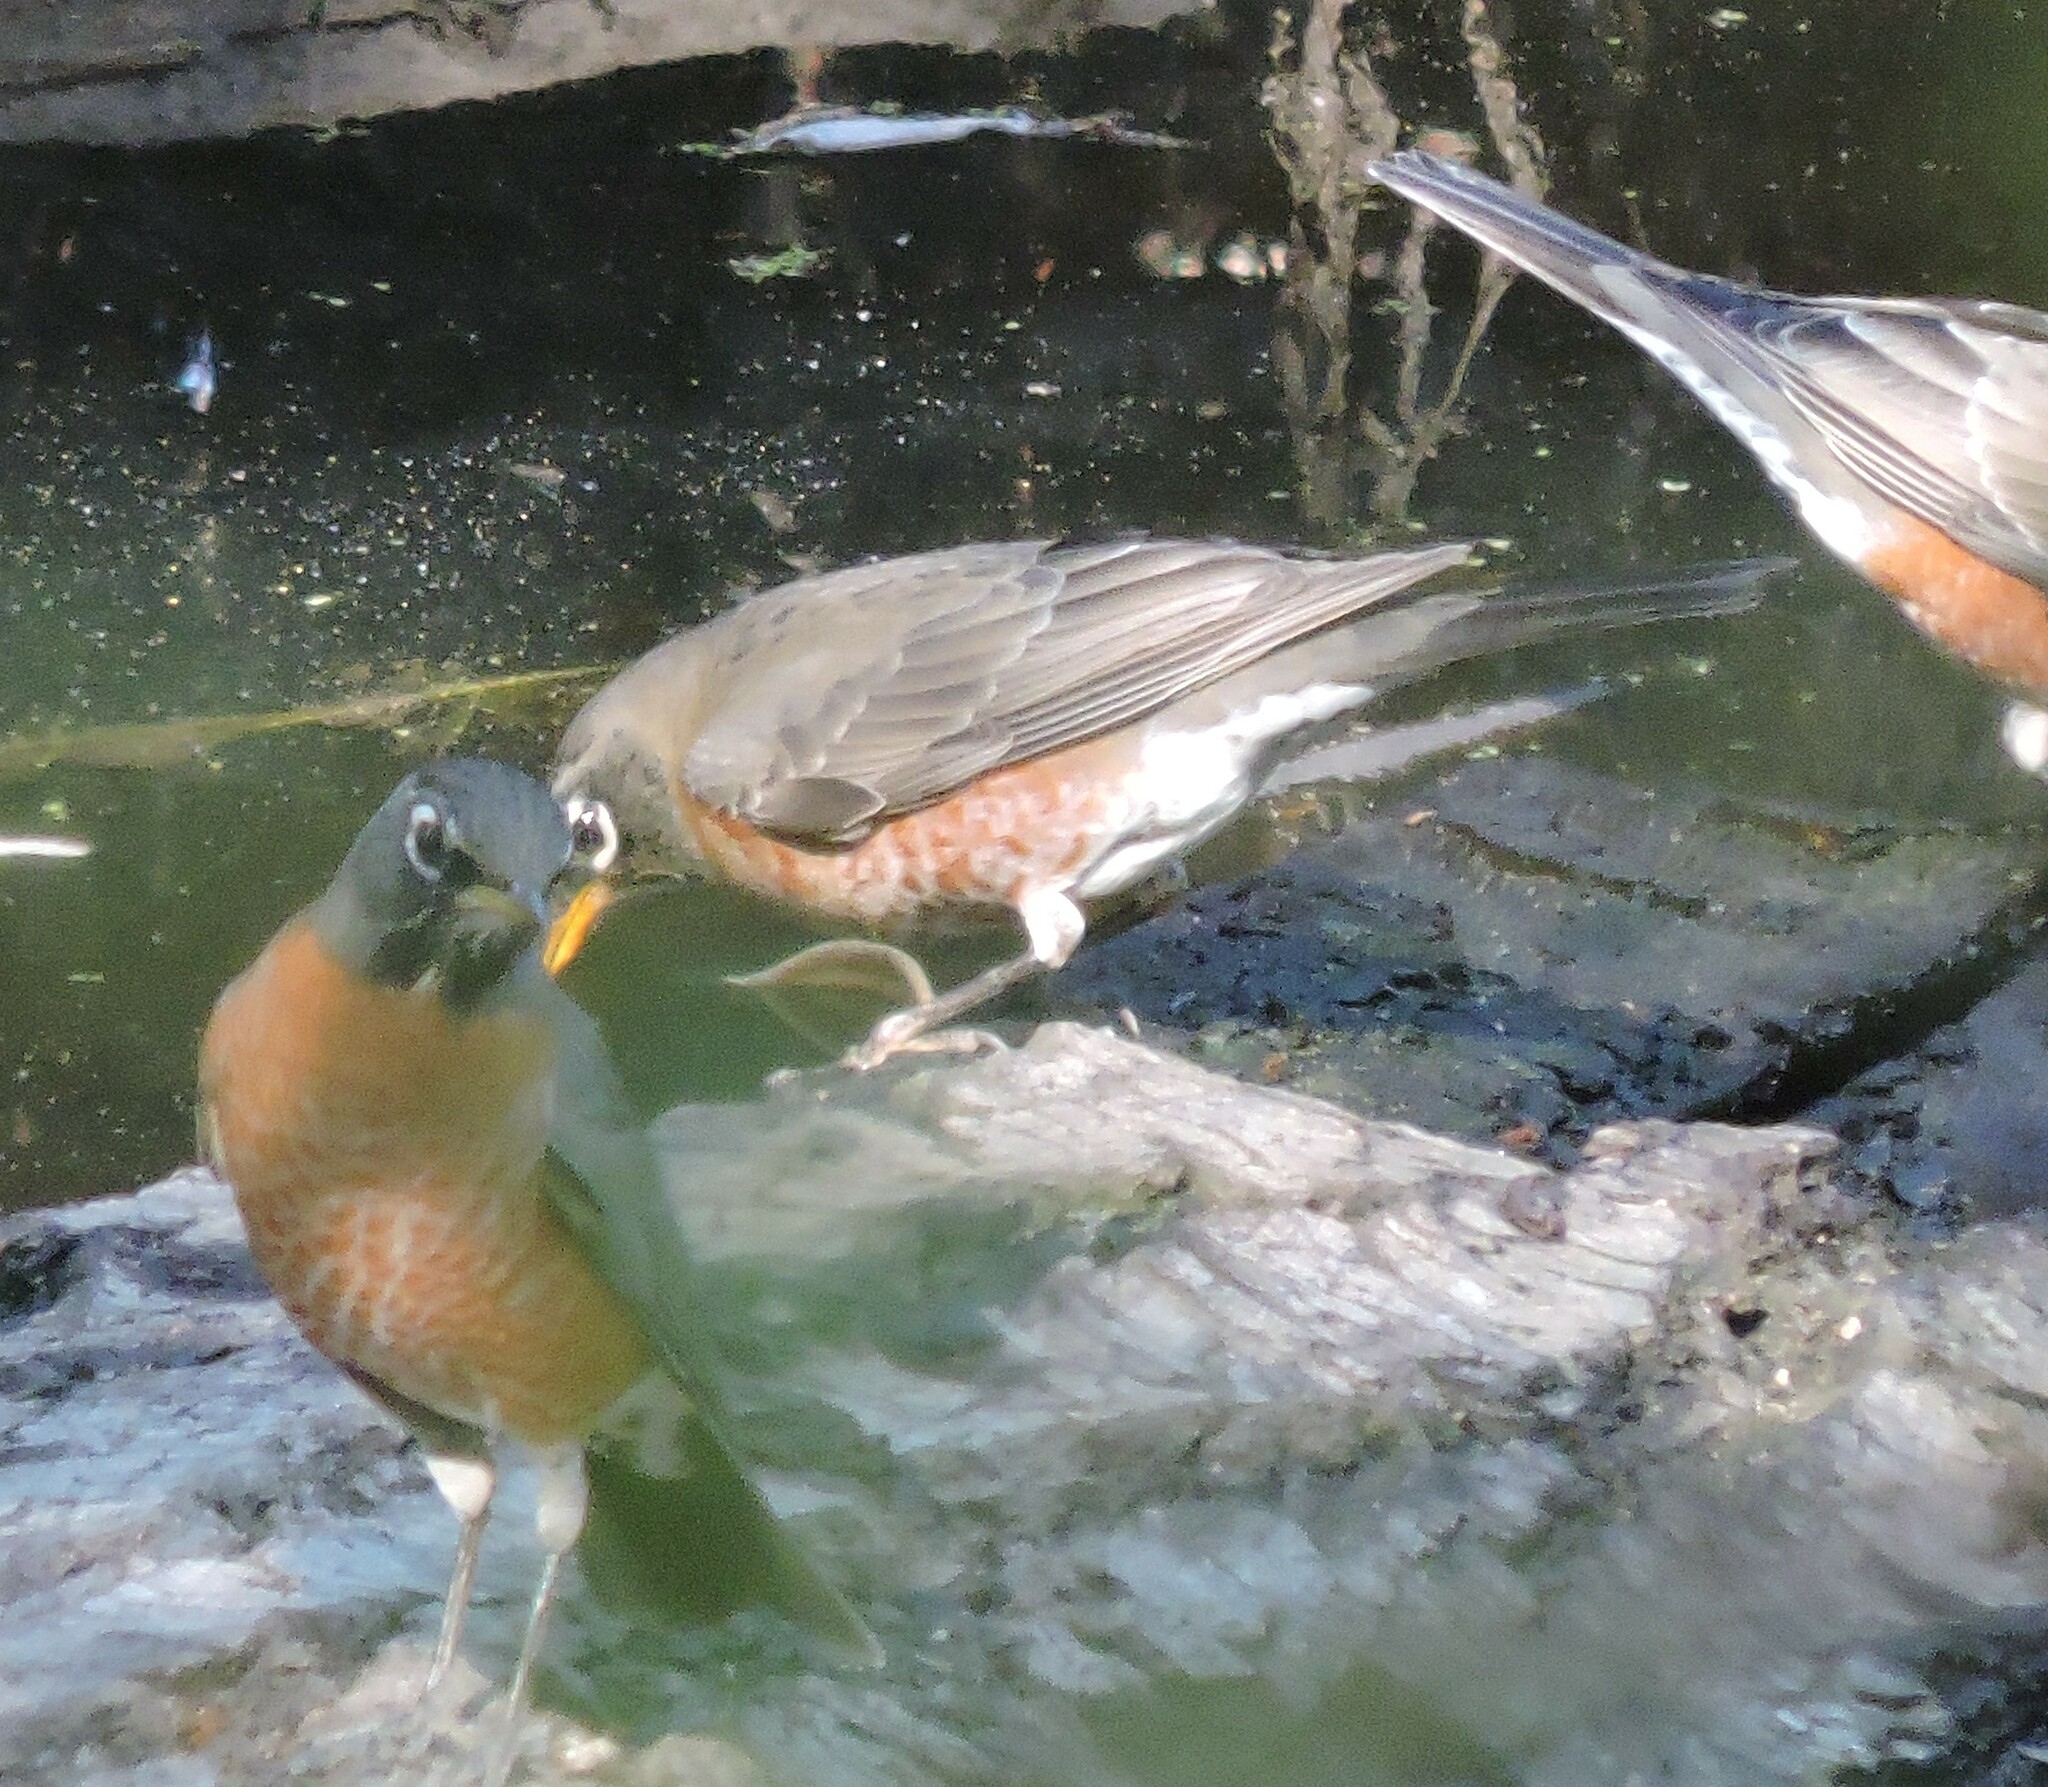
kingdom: Animalia
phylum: Chordata
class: Aves
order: Passeriformes
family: Turdidae
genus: Turdus
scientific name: Turdus migratorius
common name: American robin
